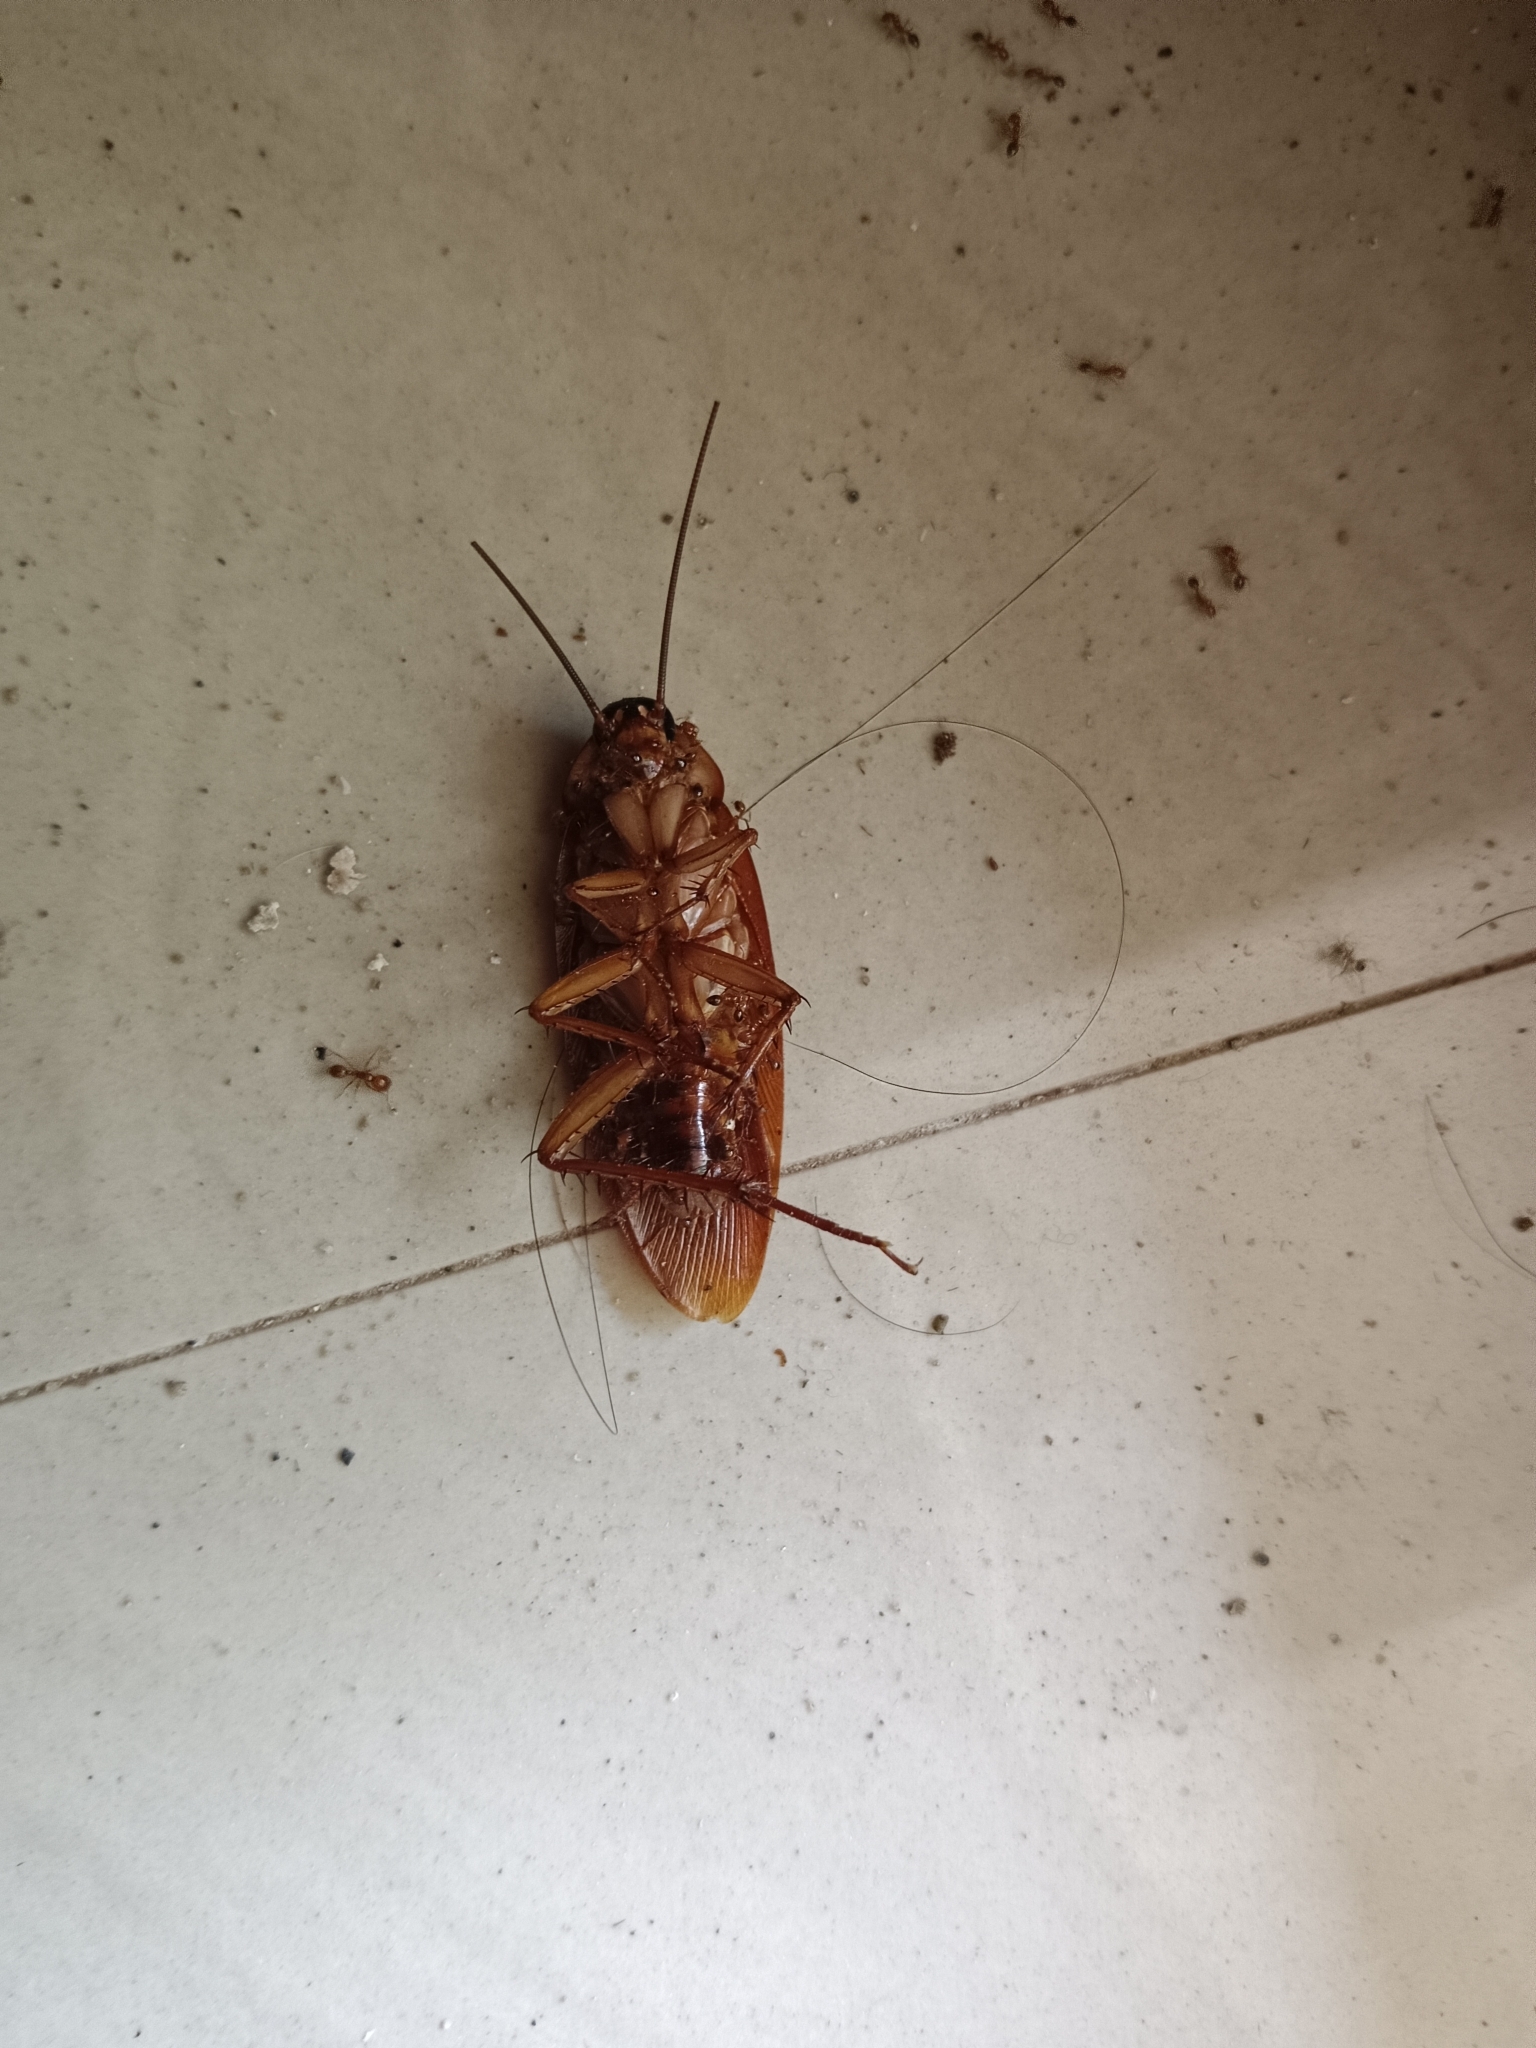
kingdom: Animalia
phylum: Arthropoda
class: Insecta
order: Blattodea
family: Blattidae
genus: Periplaneta
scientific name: Periplaneta americana
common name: American cockroach
